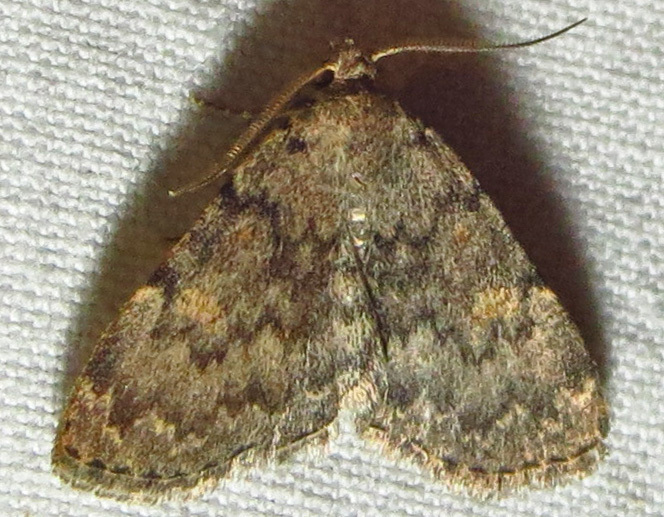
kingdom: Animalia
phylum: Arthropoda
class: Insecta
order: Lepidoptera
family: Erebidae
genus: Idia
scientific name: Idia aemula
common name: Common idia moth
